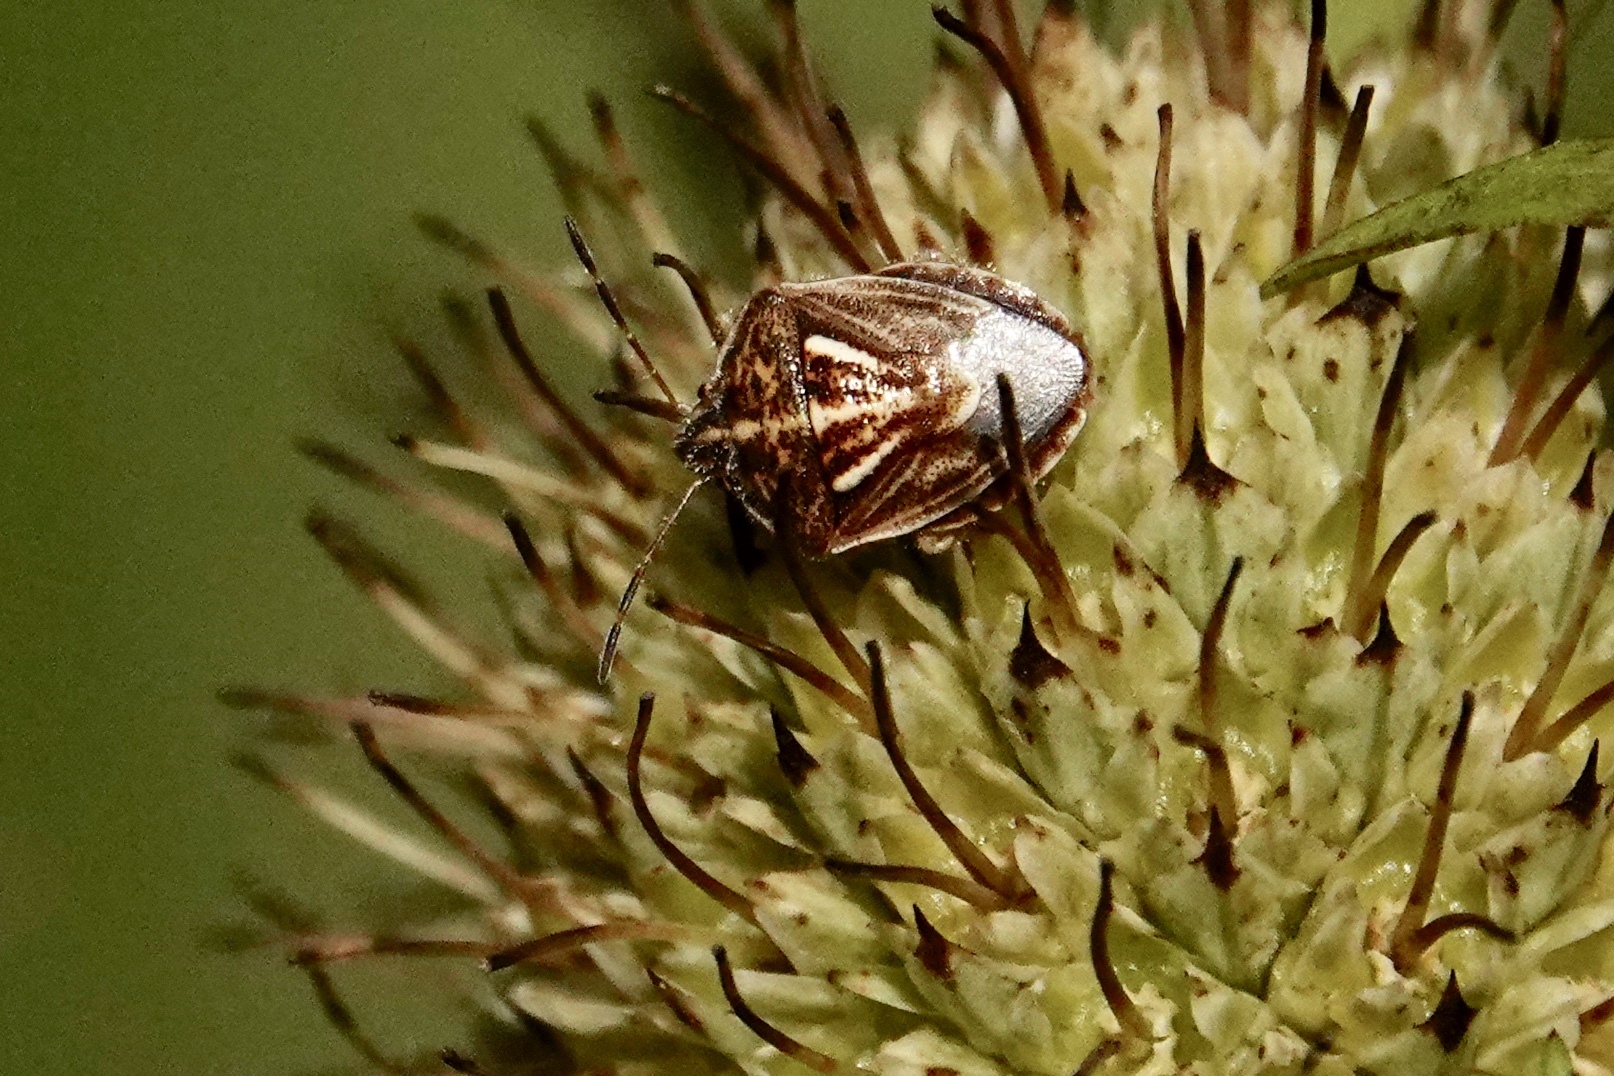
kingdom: Animalia
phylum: Arthropoda
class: Insecta
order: Hemiptera
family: Pentatomidae
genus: Trichopepla
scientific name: Trichopepla semivittata
